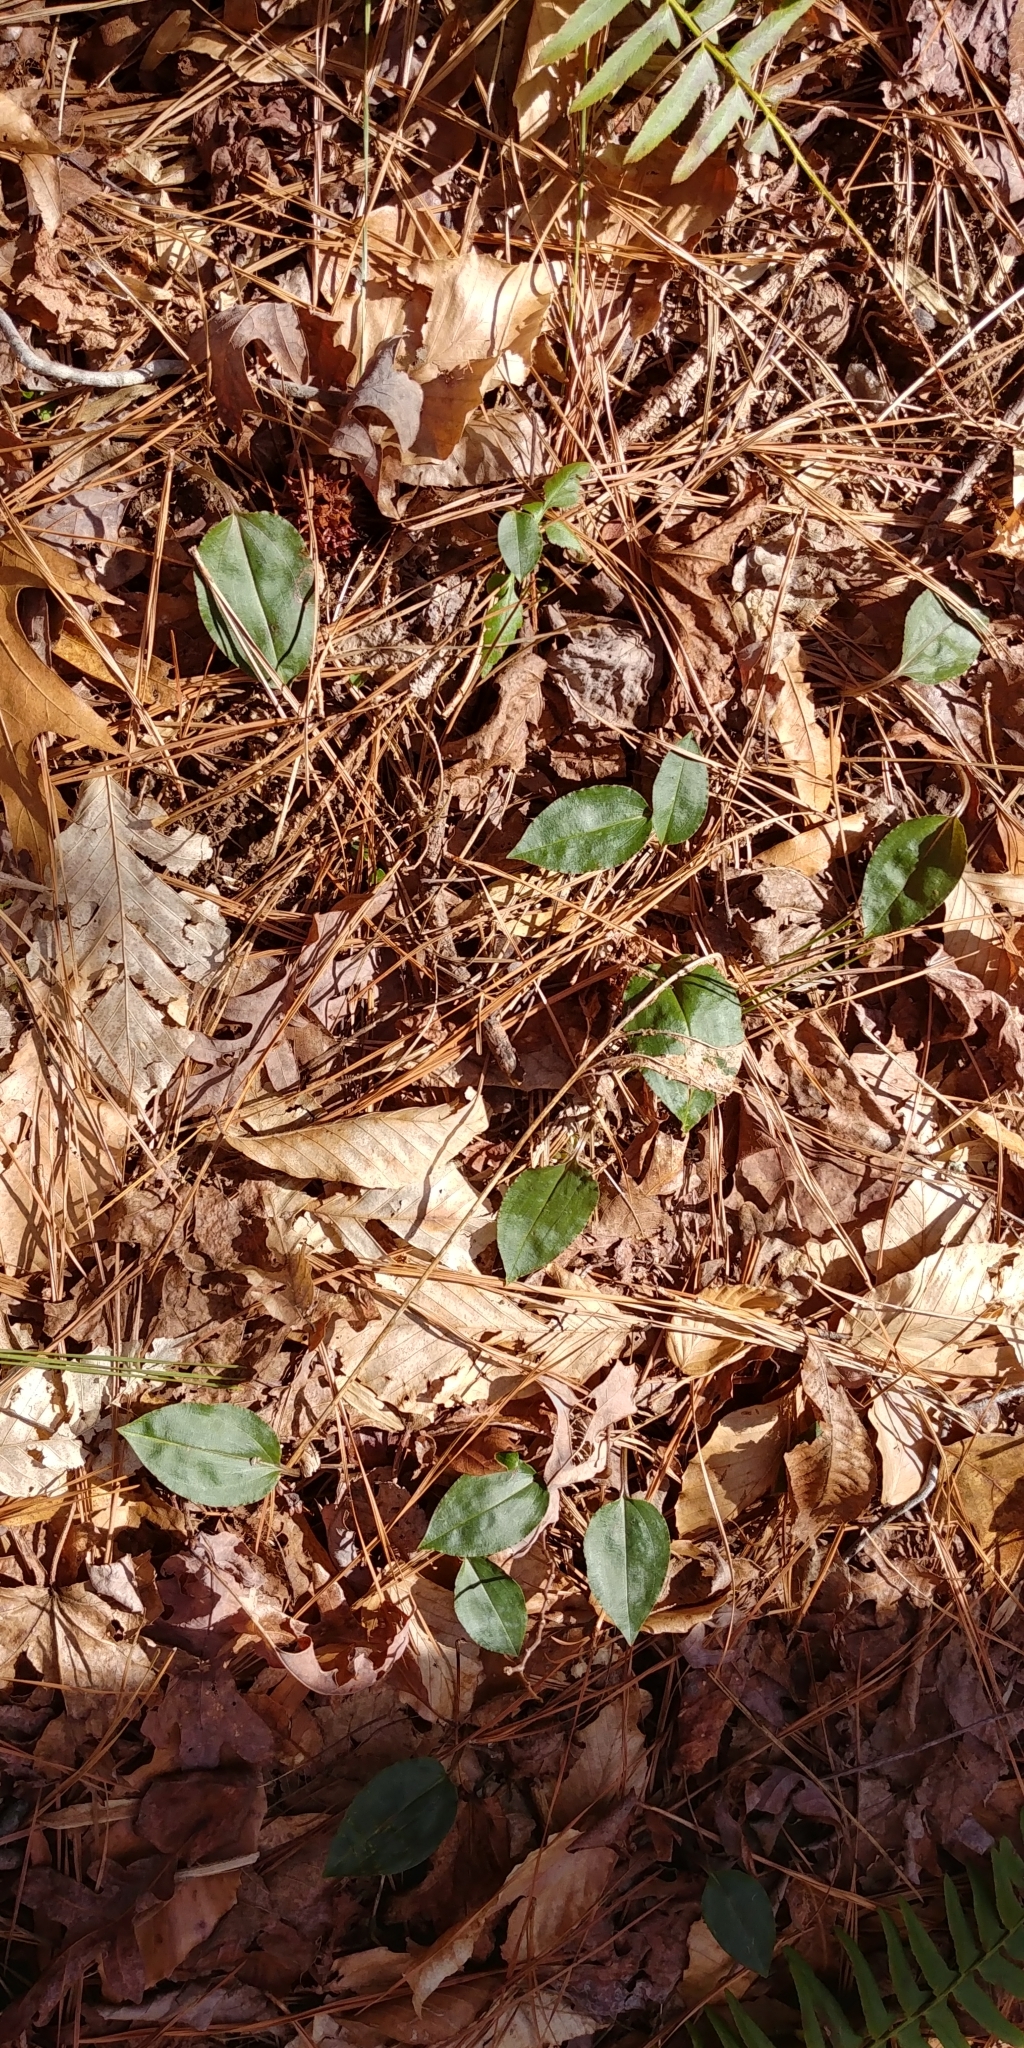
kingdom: Plantae
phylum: Tracheophyta
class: Liliopsida
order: Asparagales
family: Orchidaceae
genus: Tipularia
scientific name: Tipularia discolor
